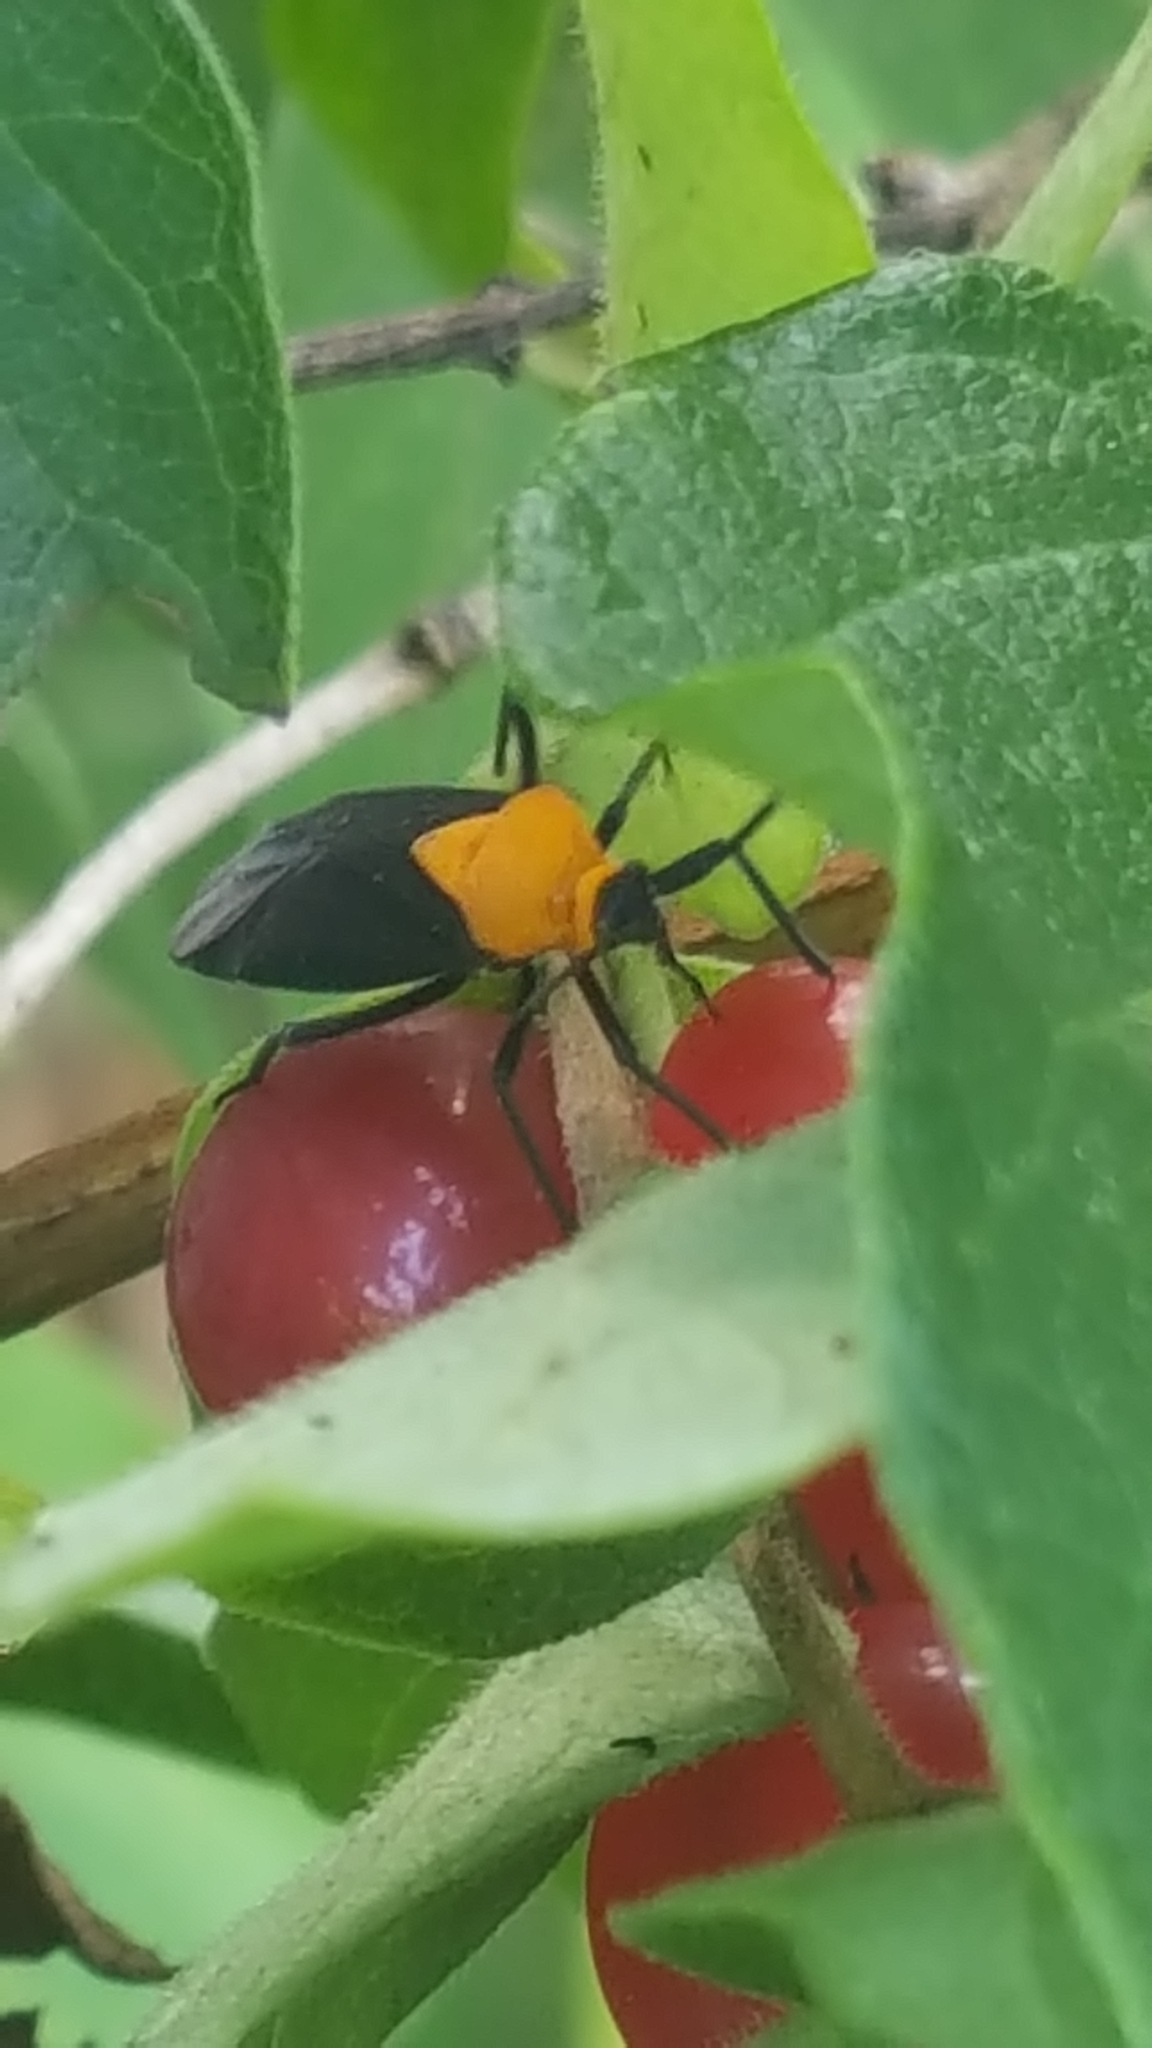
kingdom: Animalia
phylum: Arthropoda
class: Insecta
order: Hemiptera
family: Miridae
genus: Prepops
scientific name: Prepops insitivus
